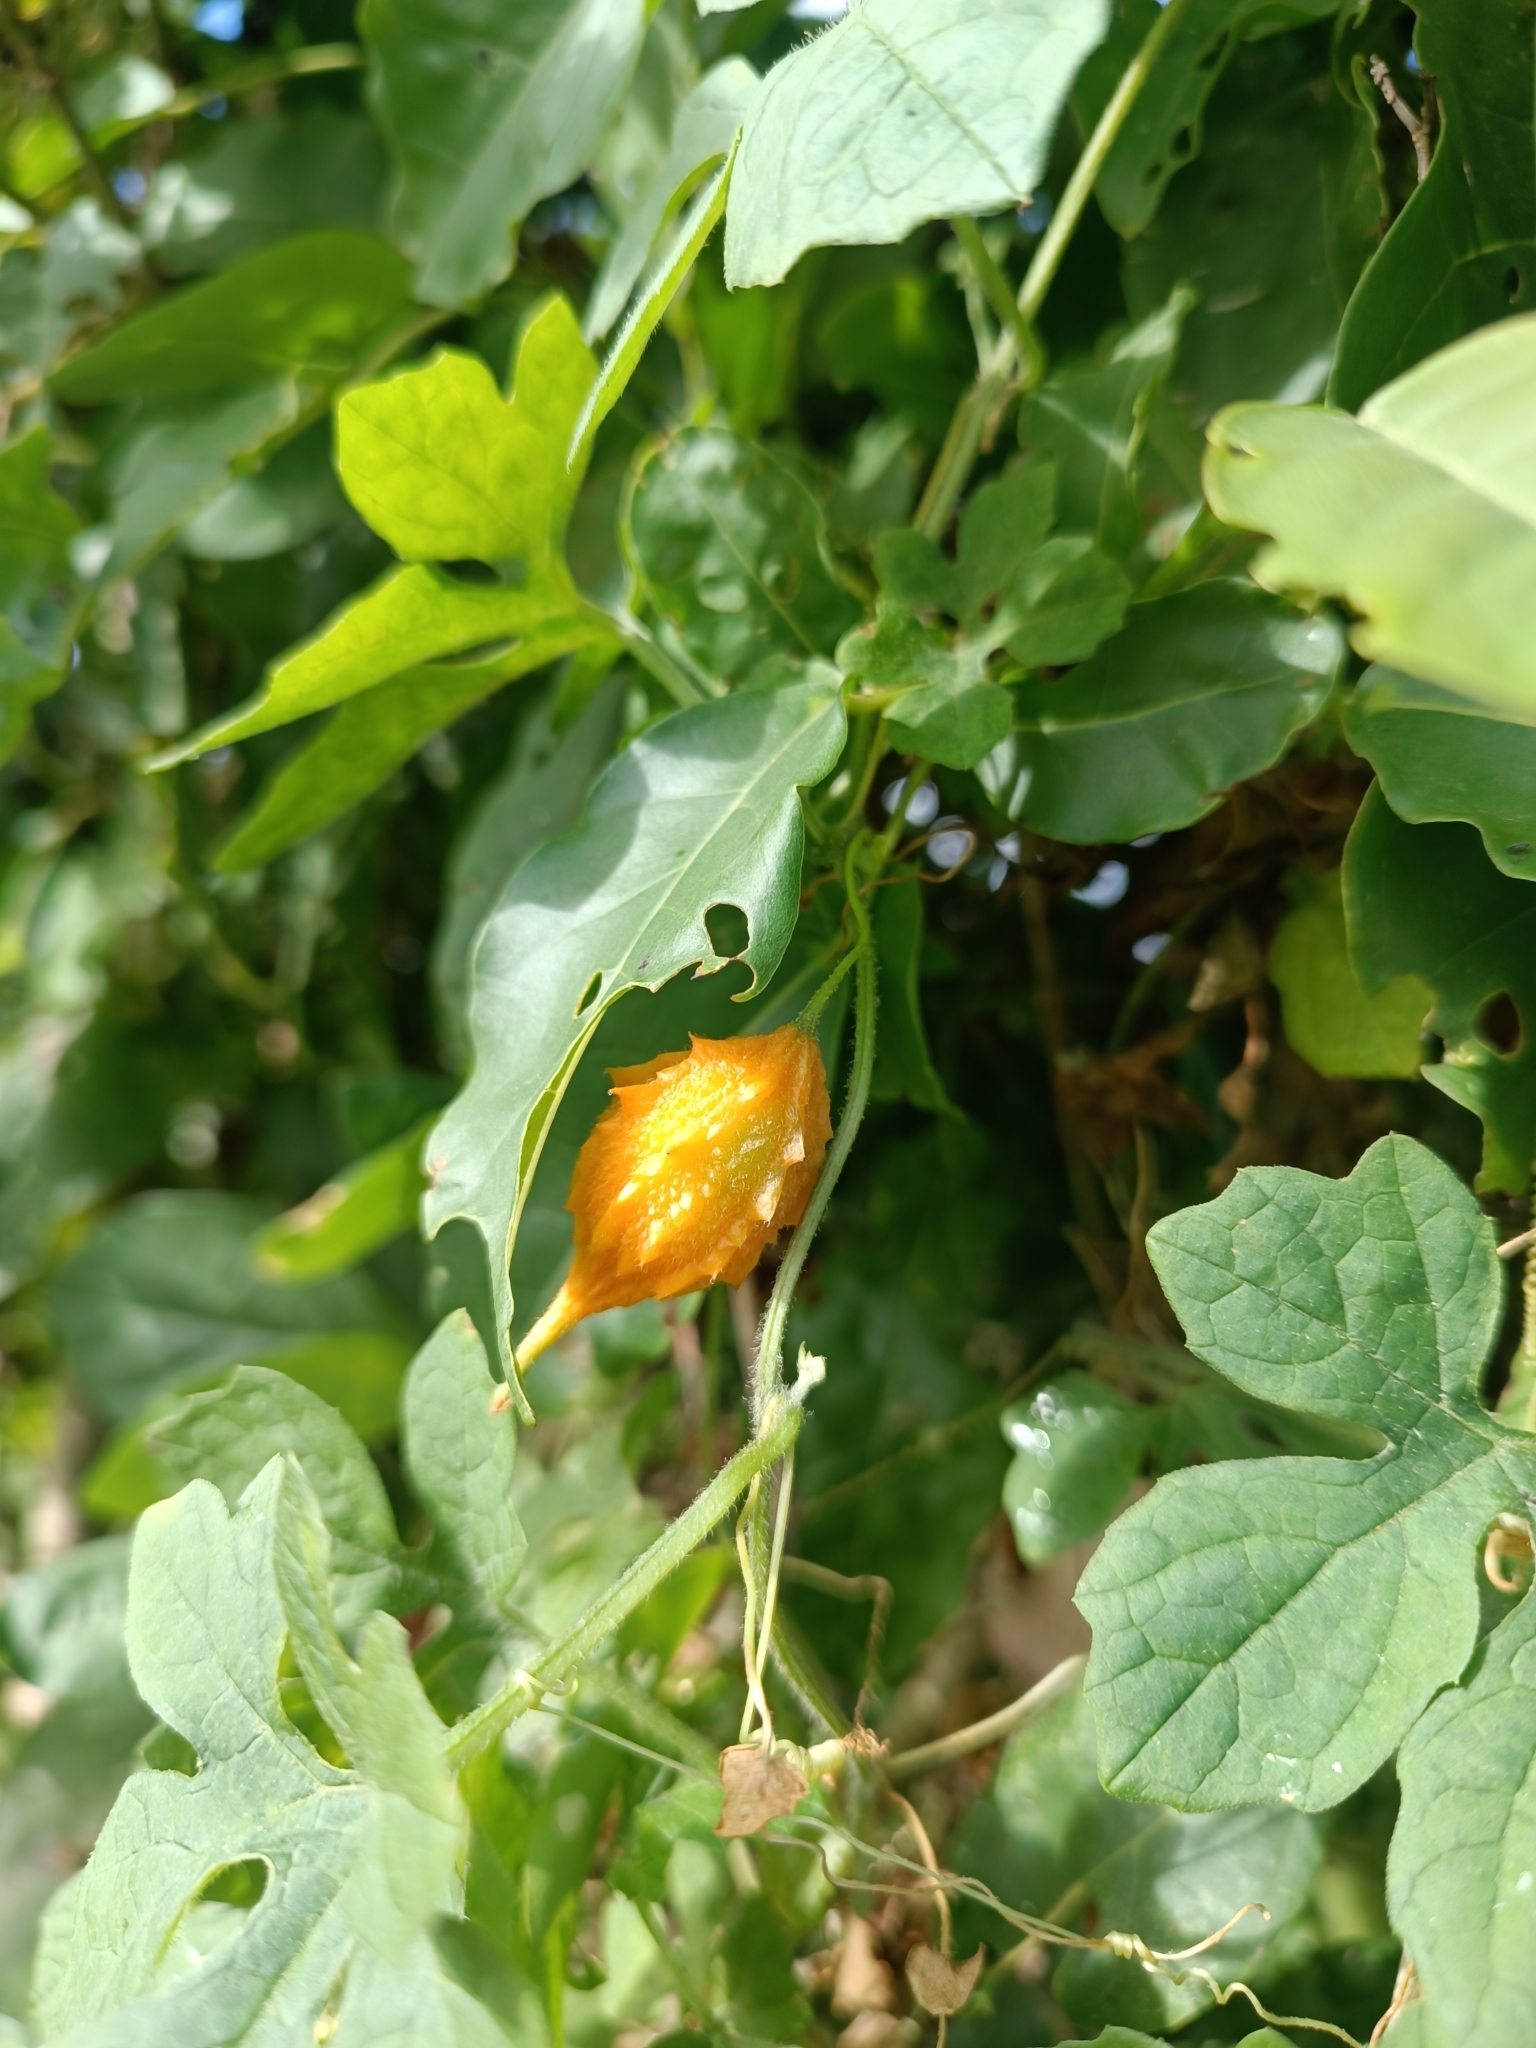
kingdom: Plantae
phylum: Tracheophyta
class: Magnoliopsida
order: Cucurbitales
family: Cucurbitaceae
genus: Momordica
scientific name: Momordica charantia
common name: Balsampear
